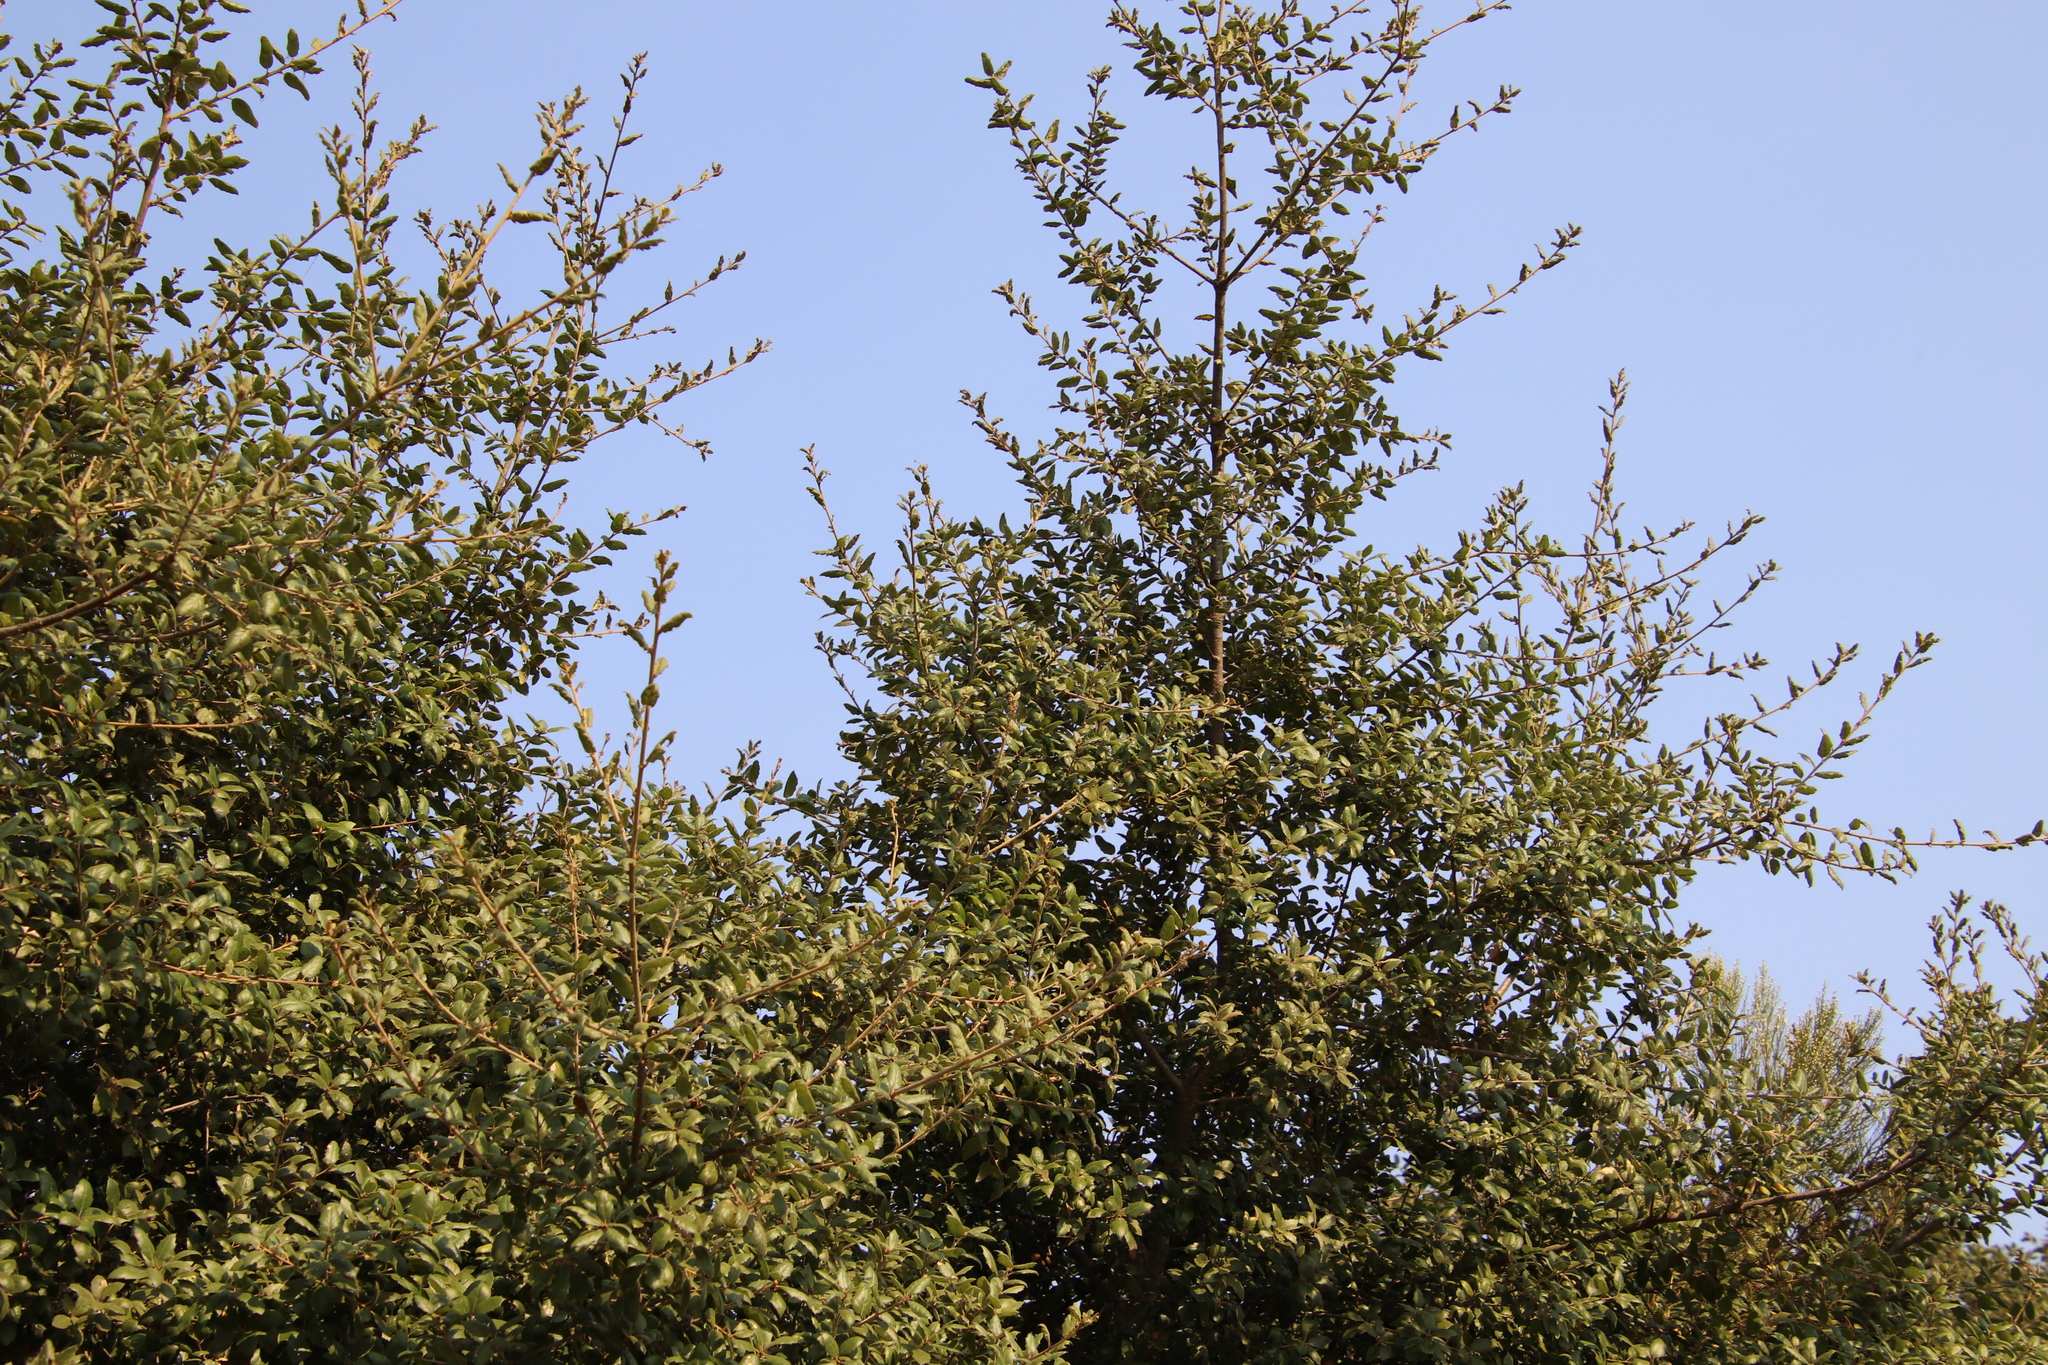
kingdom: Plantae
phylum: Tracheophyta
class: Magnoliopsida
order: Fagales
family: Fagaceae
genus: Quercus
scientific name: Quercus agrifolia
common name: California live oak
